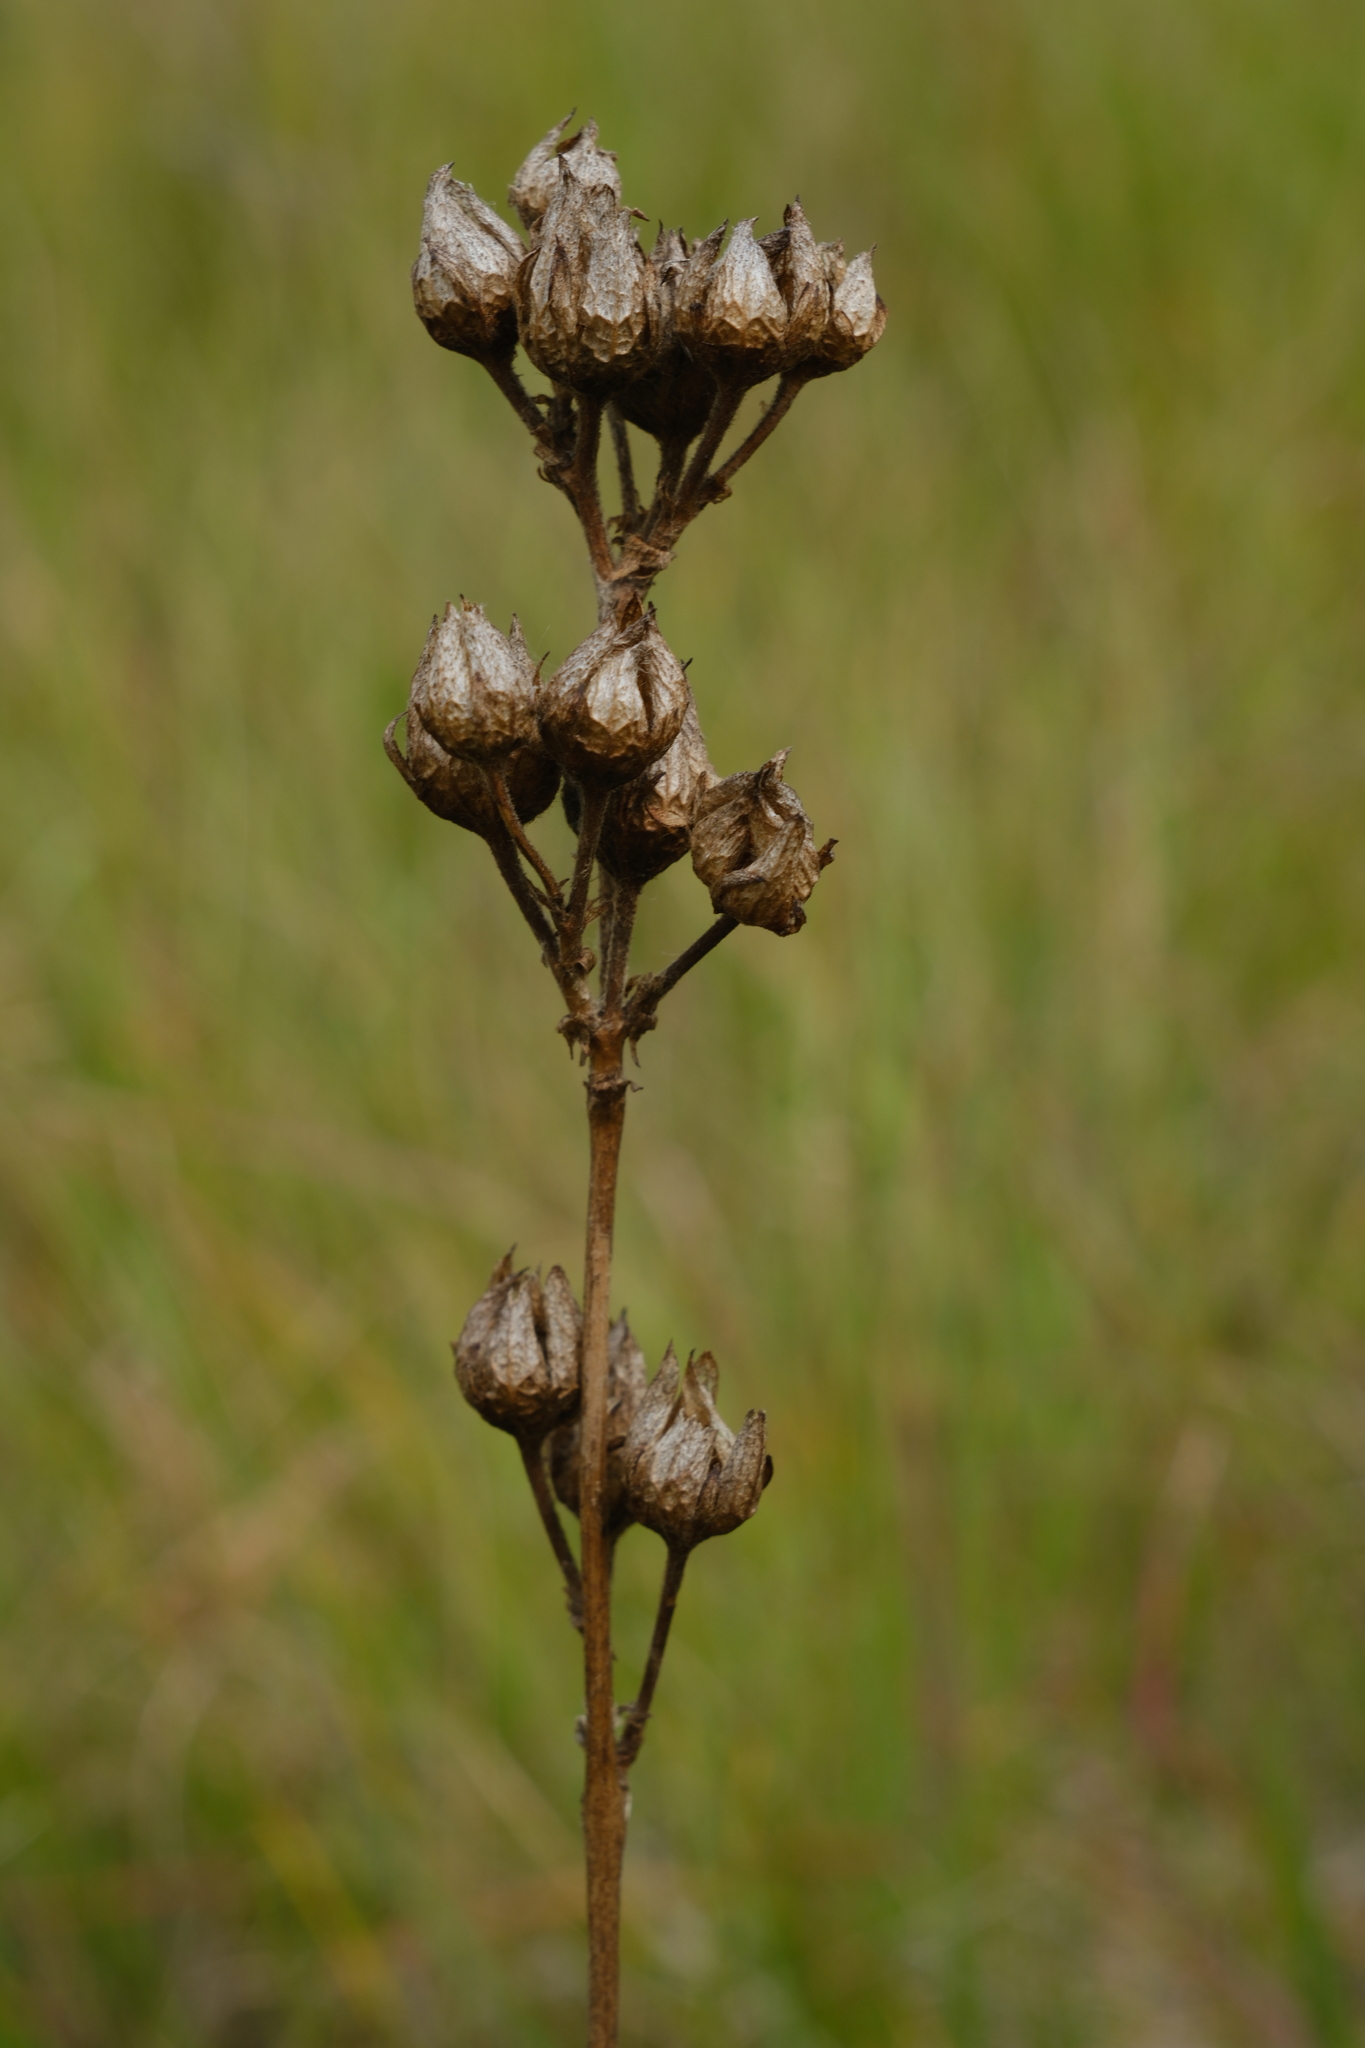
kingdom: Plantae
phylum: Tracheophyta
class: Magnoliopsida
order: Rosales
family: Rosaceae
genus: Drymocallis
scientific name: Drymocallis arguta
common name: Tall cinquefoil
